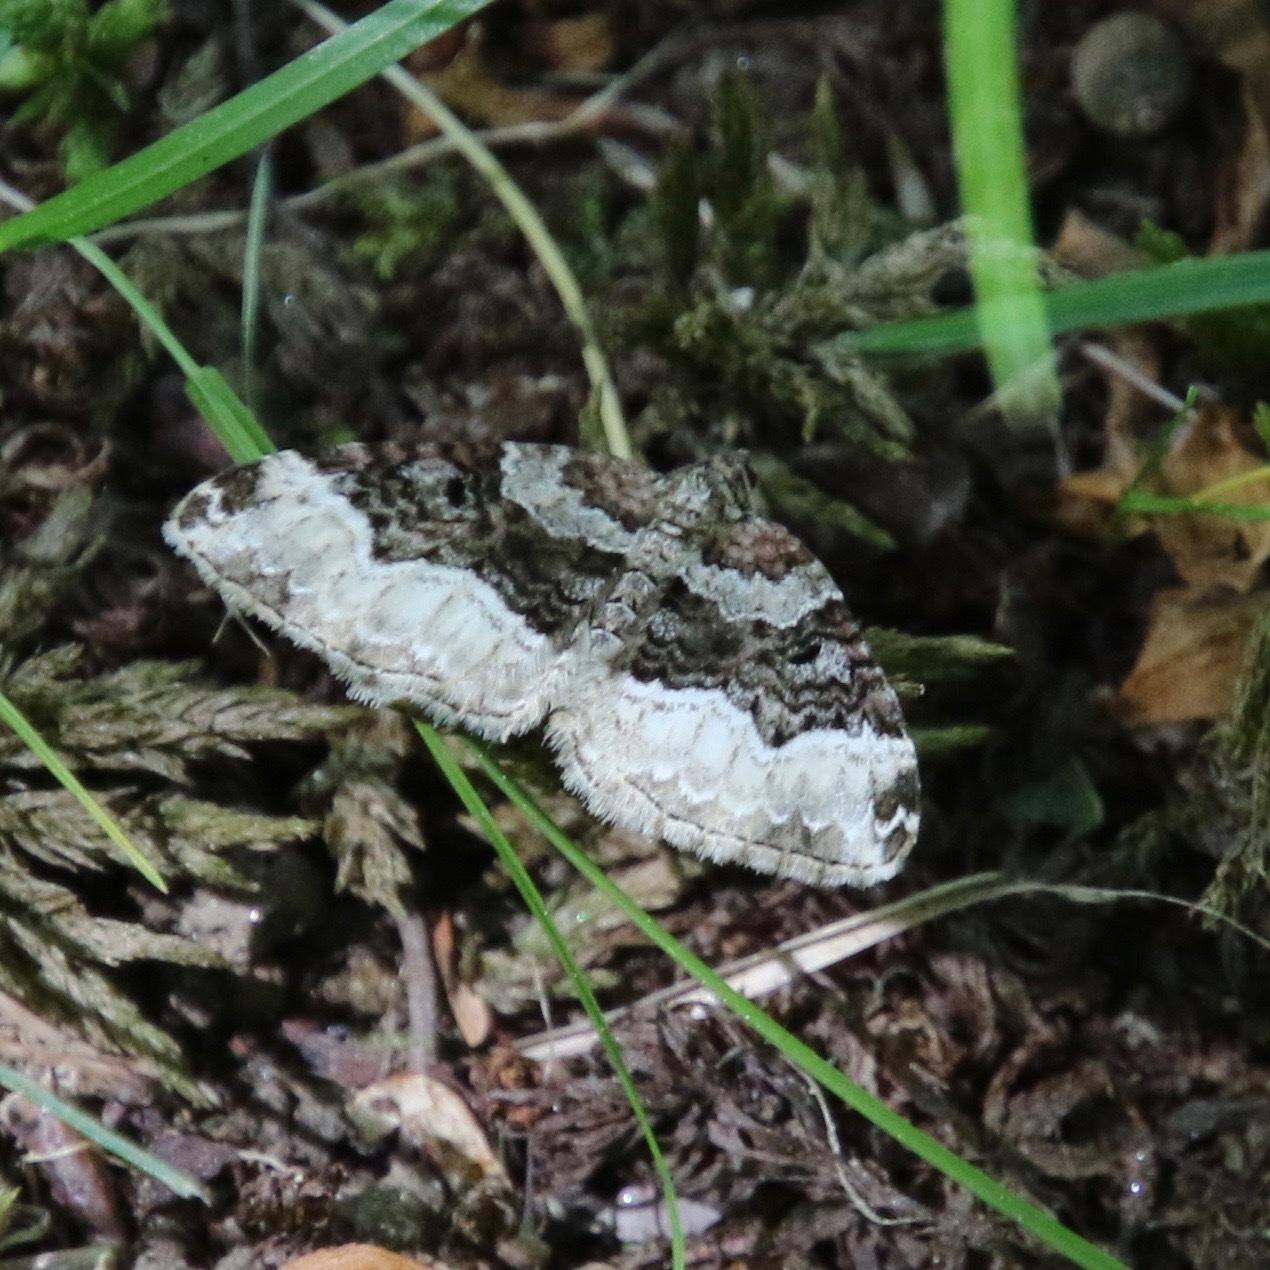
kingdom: Animalia
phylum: Arthropoda
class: Insecta
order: Lepidoptera
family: Geometridae
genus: Euphyia
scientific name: Euphyia intermediata
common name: Sharp-angled carpet
